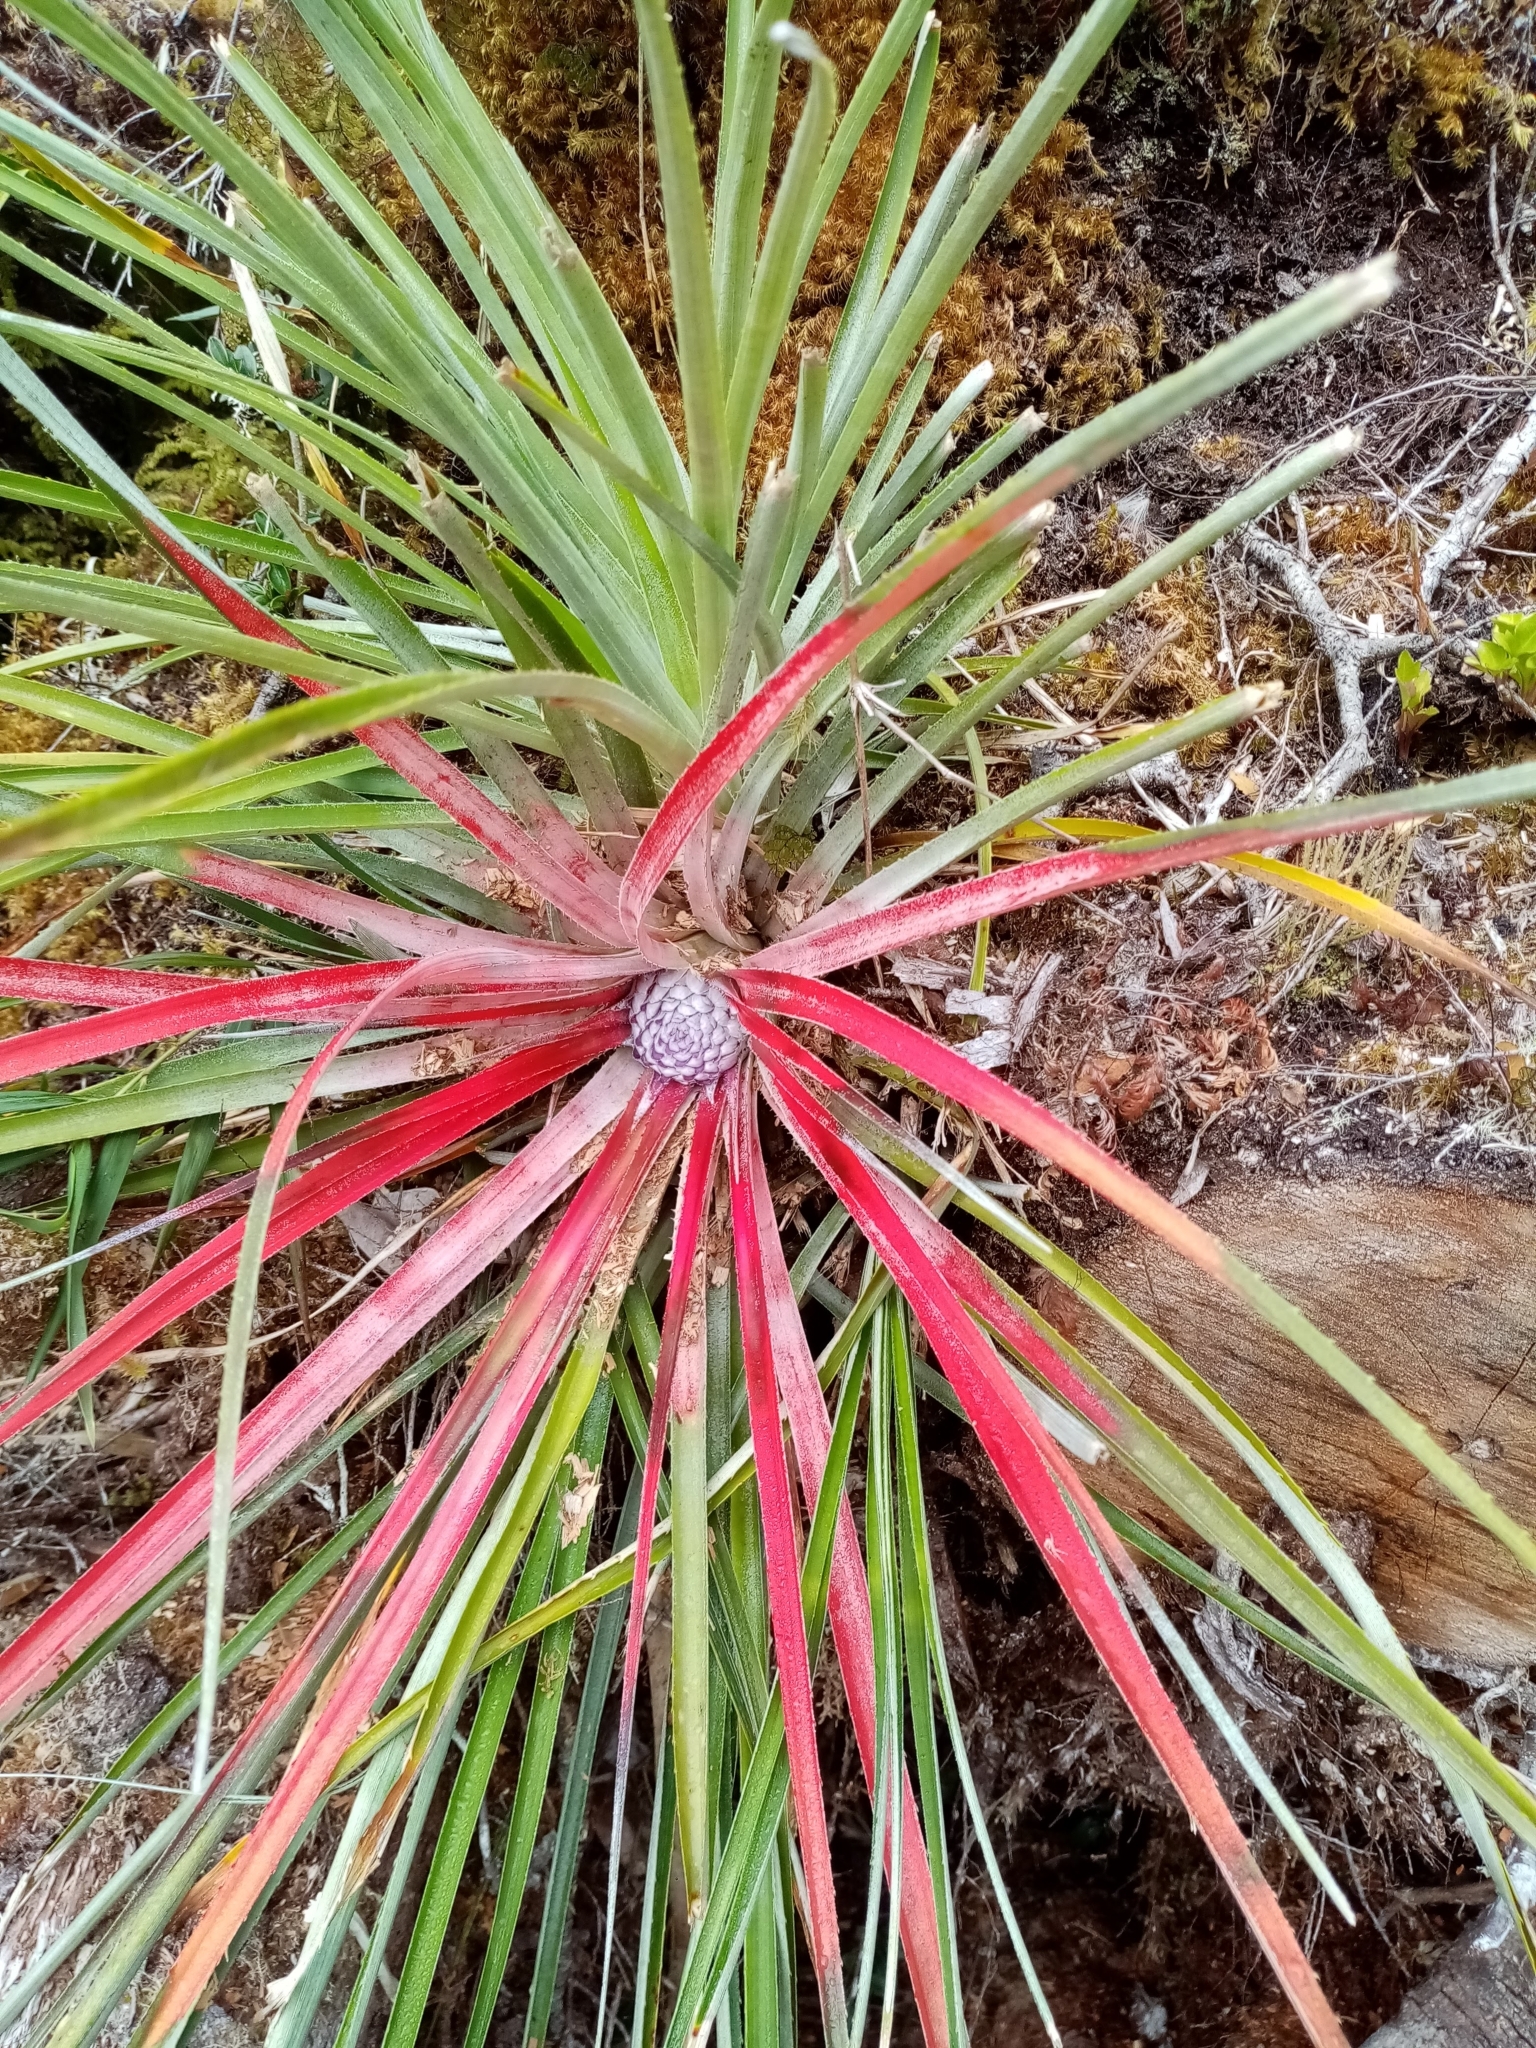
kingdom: Plantae
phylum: Tracheophyta
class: Liliopsida
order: Poales
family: Bromeliaceae
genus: Fascicularia
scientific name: Fascicularia bicolor
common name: Rhodostachys
